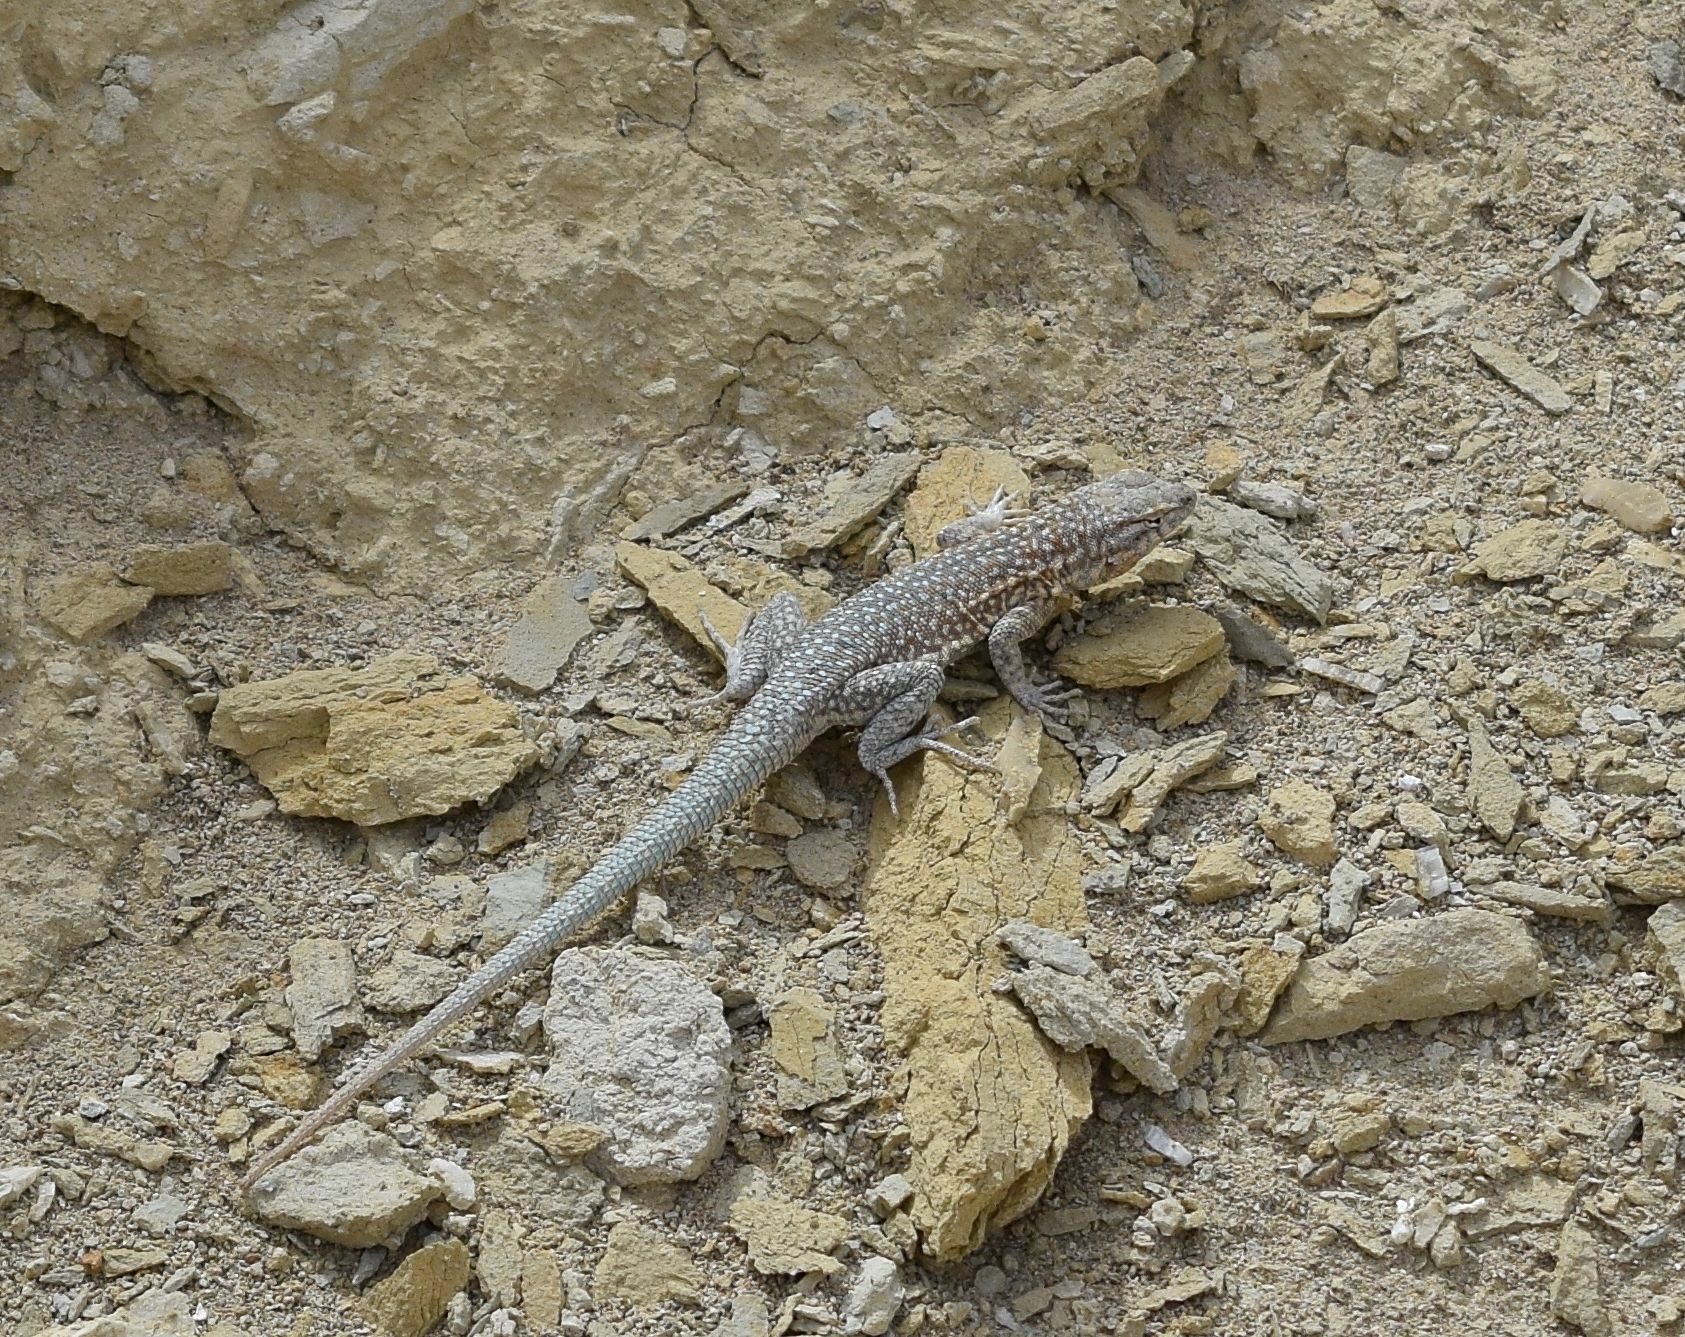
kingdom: Animalia
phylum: Chordata
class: Squamata
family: Phrynosomatidae
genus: Uta
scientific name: Uta stansburiana
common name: Side-blotched lizard
